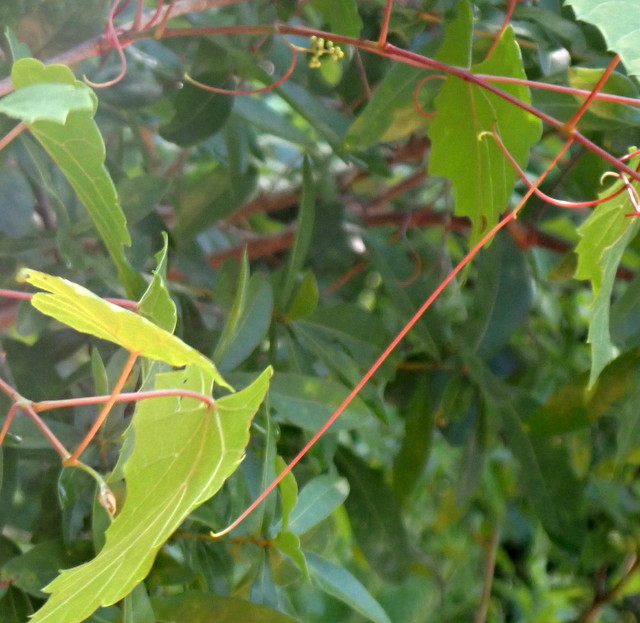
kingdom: Plantae
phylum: Tracheophyta
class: Magnoliopsida
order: Vitales
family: Vitaceae
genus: Vitis
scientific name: Vitis rotundifolia
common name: Muscadine grape
